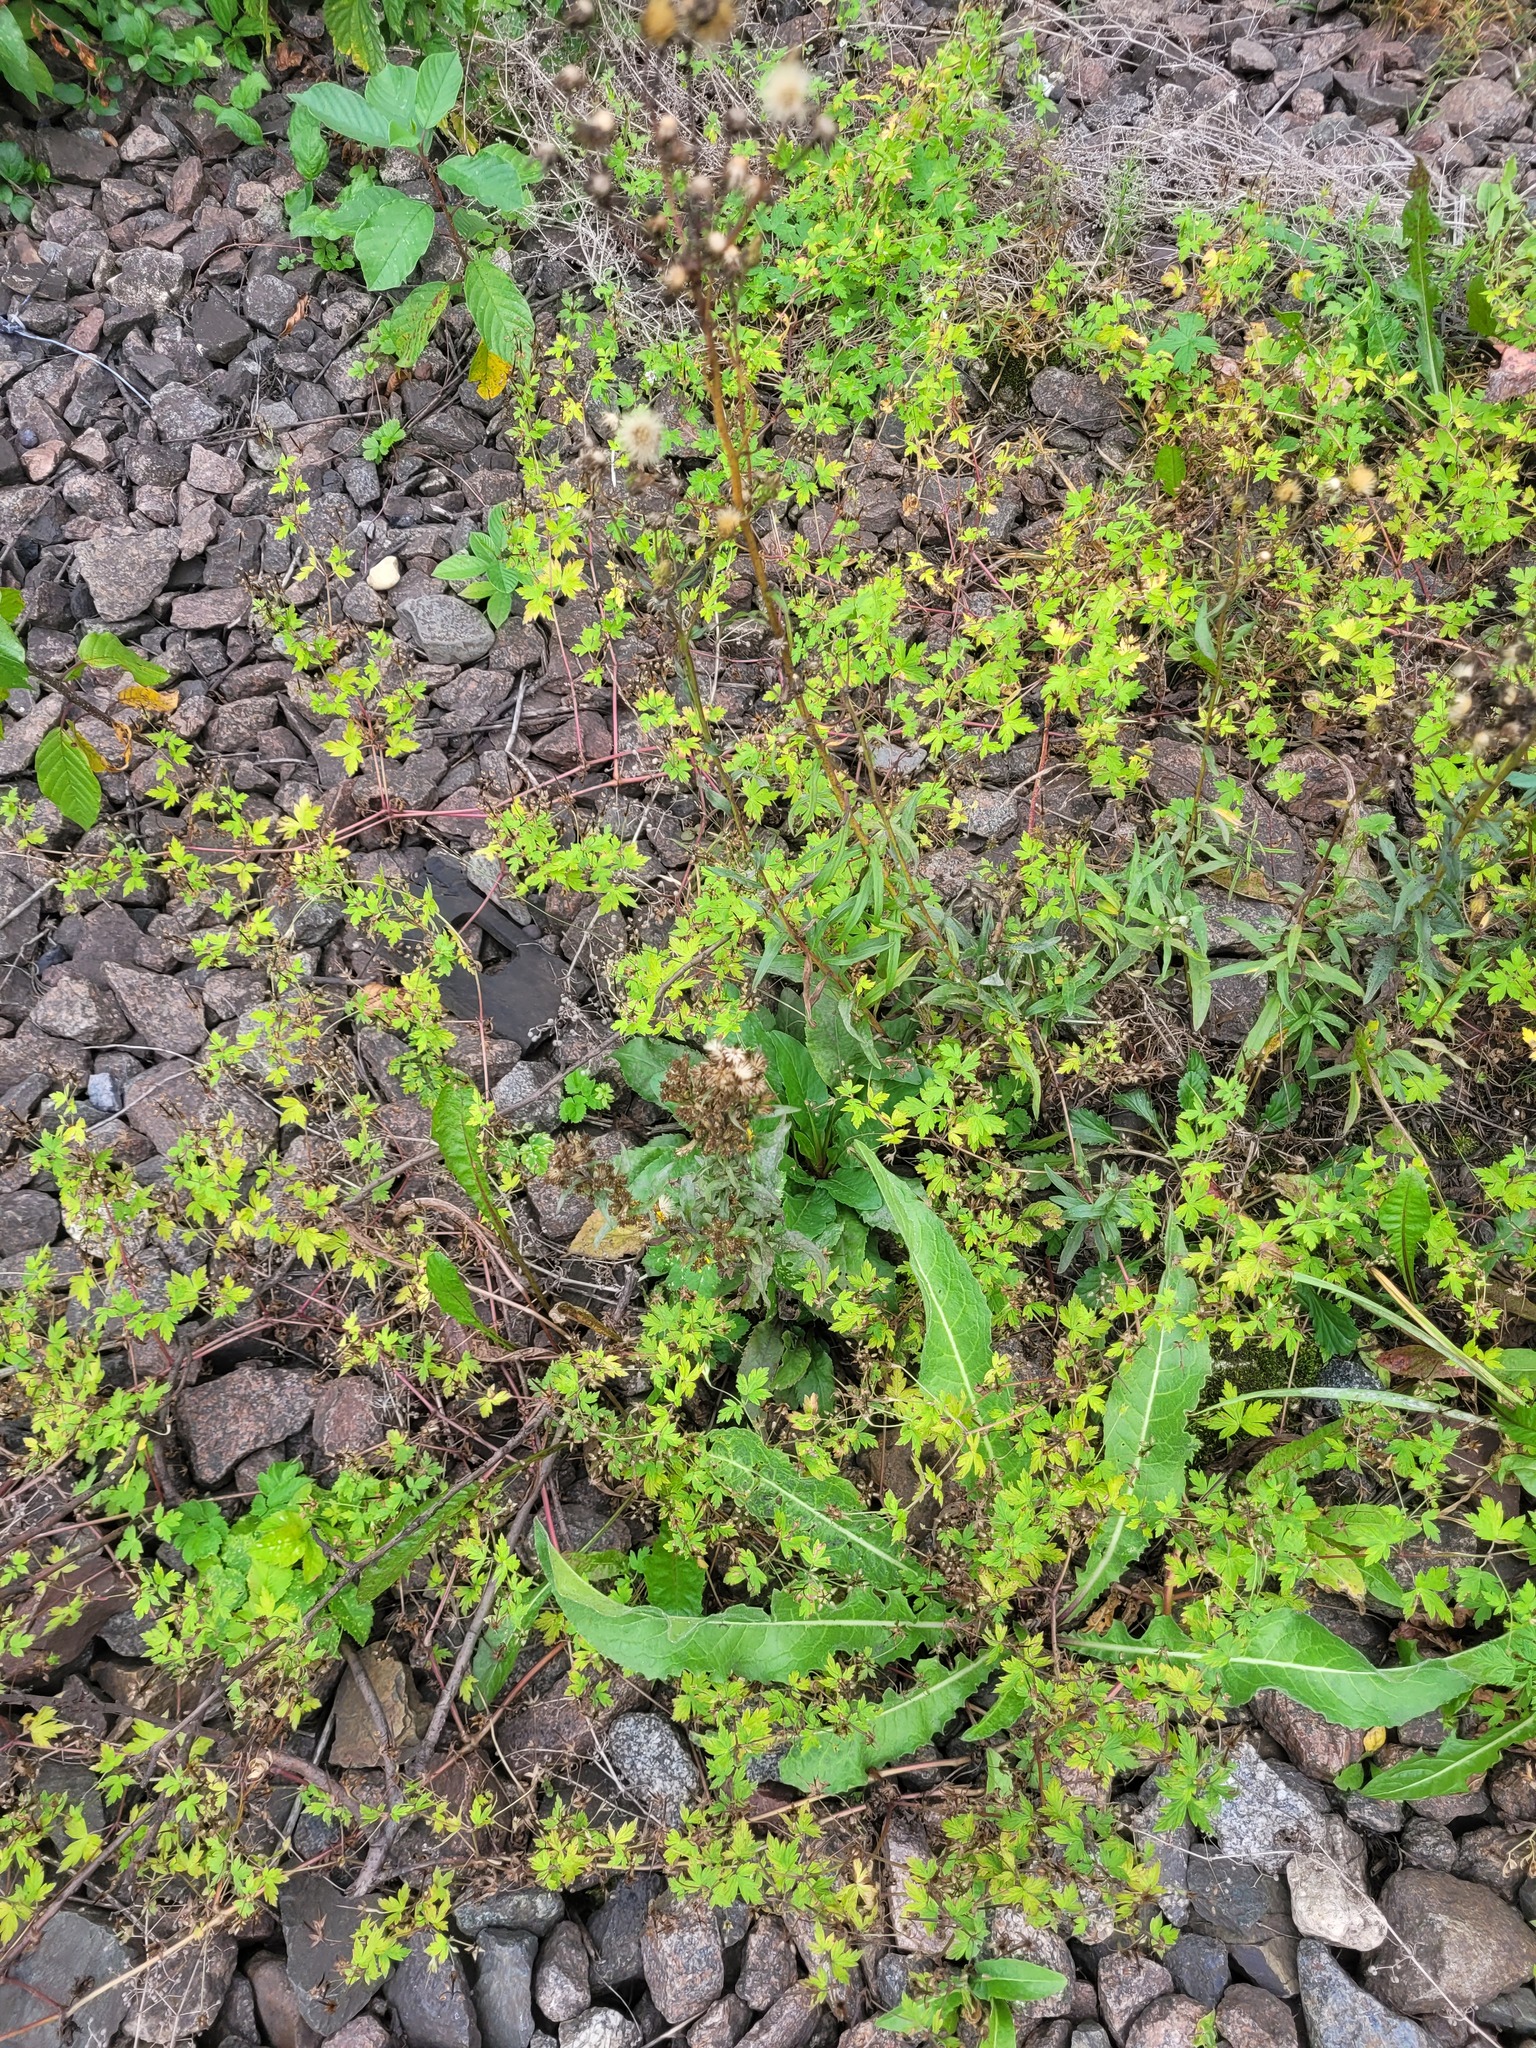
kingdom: Plantae
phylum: Tracheophyta
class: Magnoliopsida
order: Geraniales
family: Geraniaceae
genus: Geranium
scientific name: Geranium sibiricum
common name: Siberian crane's-bill
